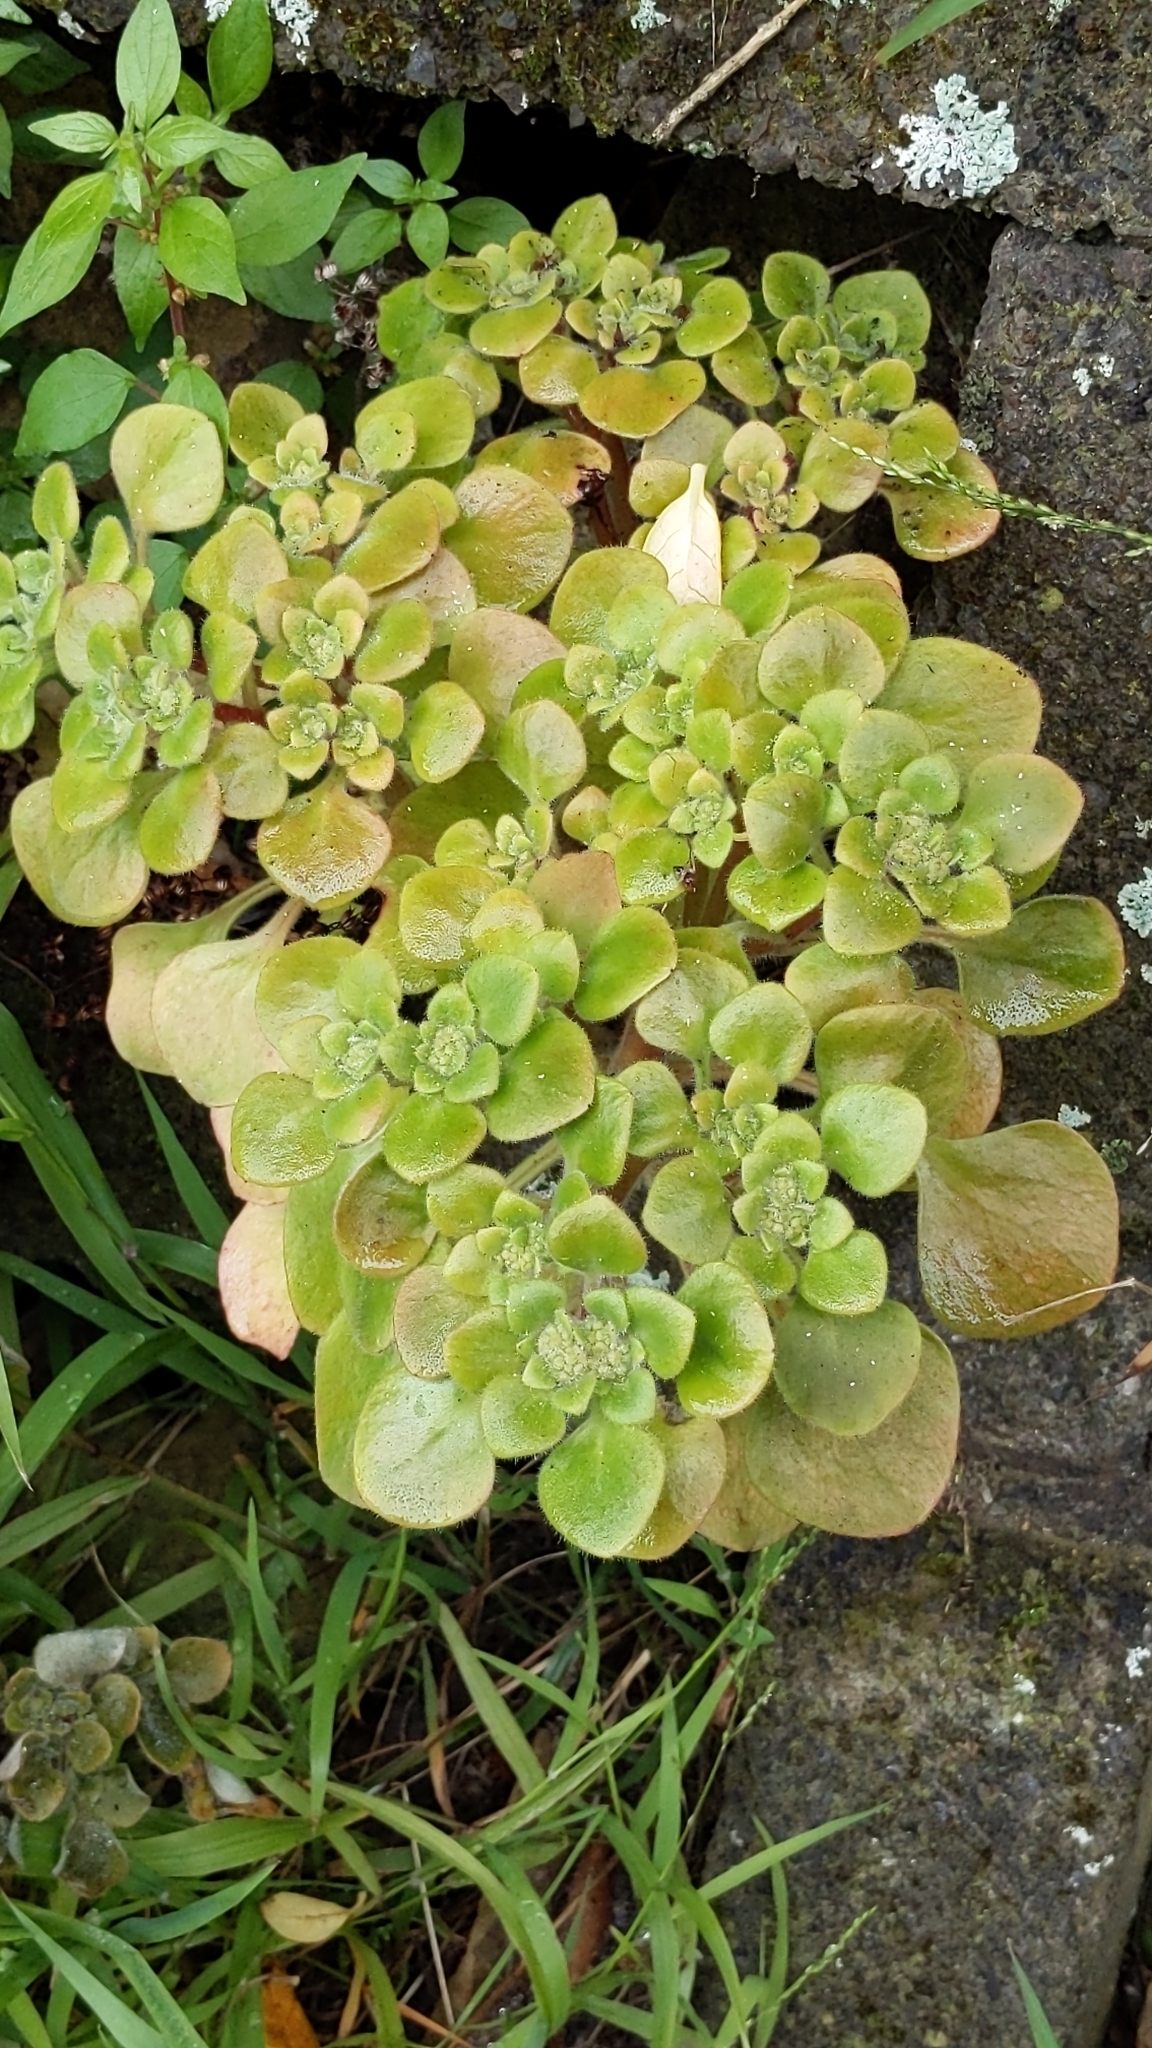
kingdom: Plantae
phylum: Tracheophyta
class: Magnoliopsida
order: Saxifragales
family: Crassulaceae
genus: Aichryson
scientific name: Aichryson laxum
